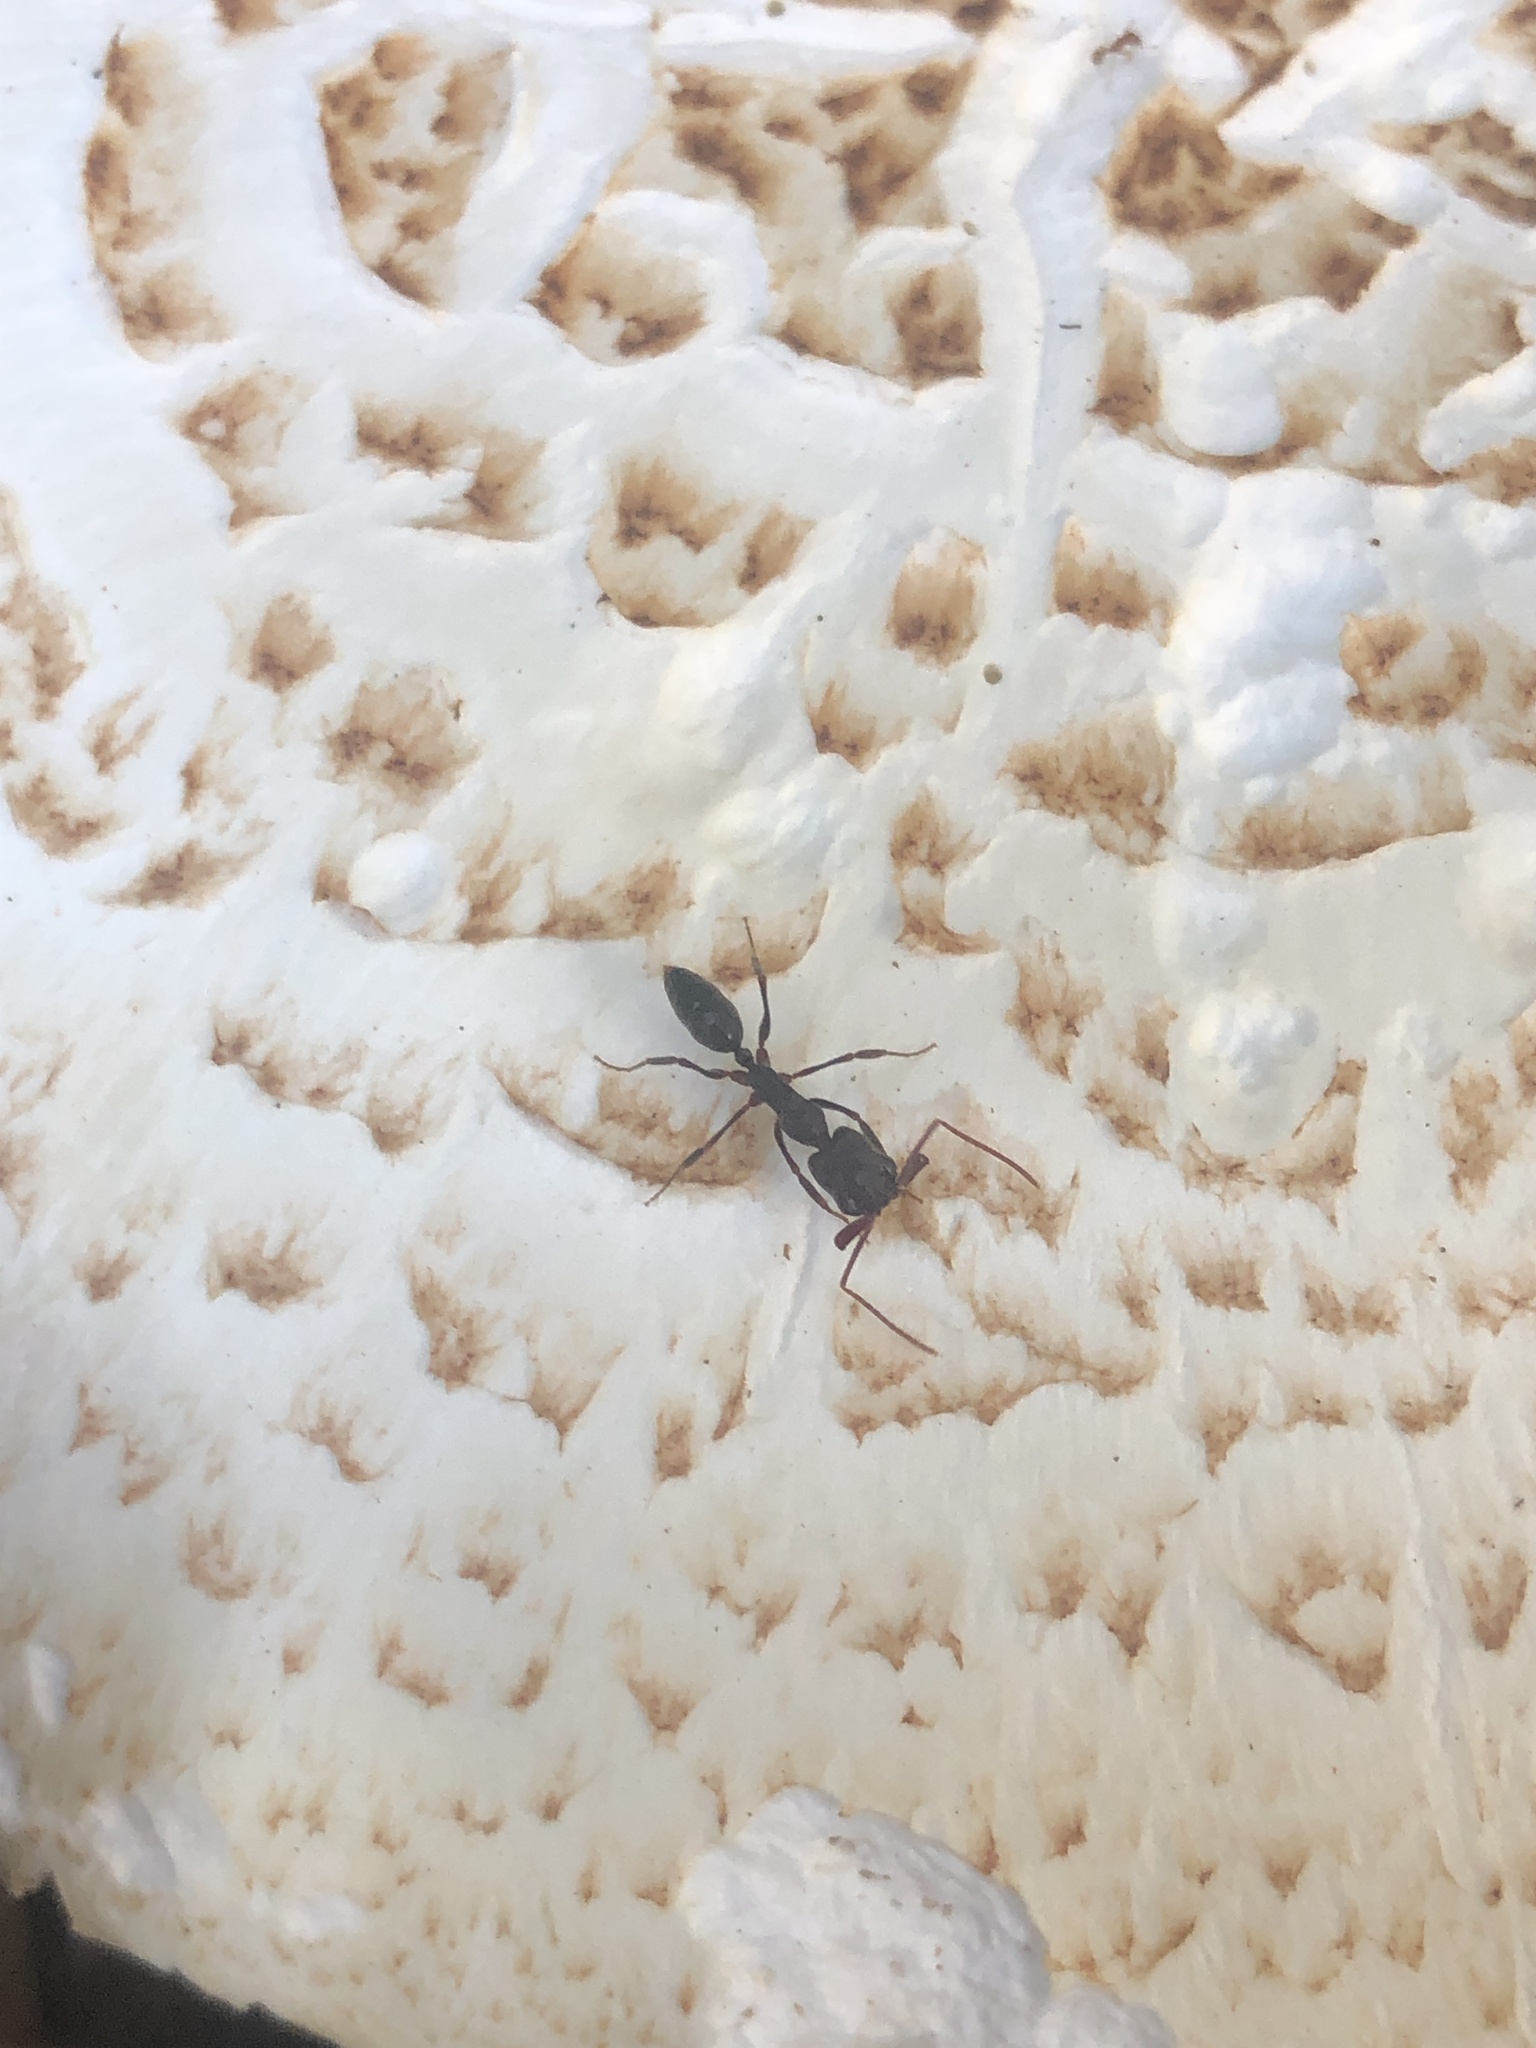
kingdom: Animalia
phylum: Arthropoda
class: Insecta
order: Hymenoptera
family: Formicidae
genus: Odontomachus
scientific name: Odontomachus brunneus
